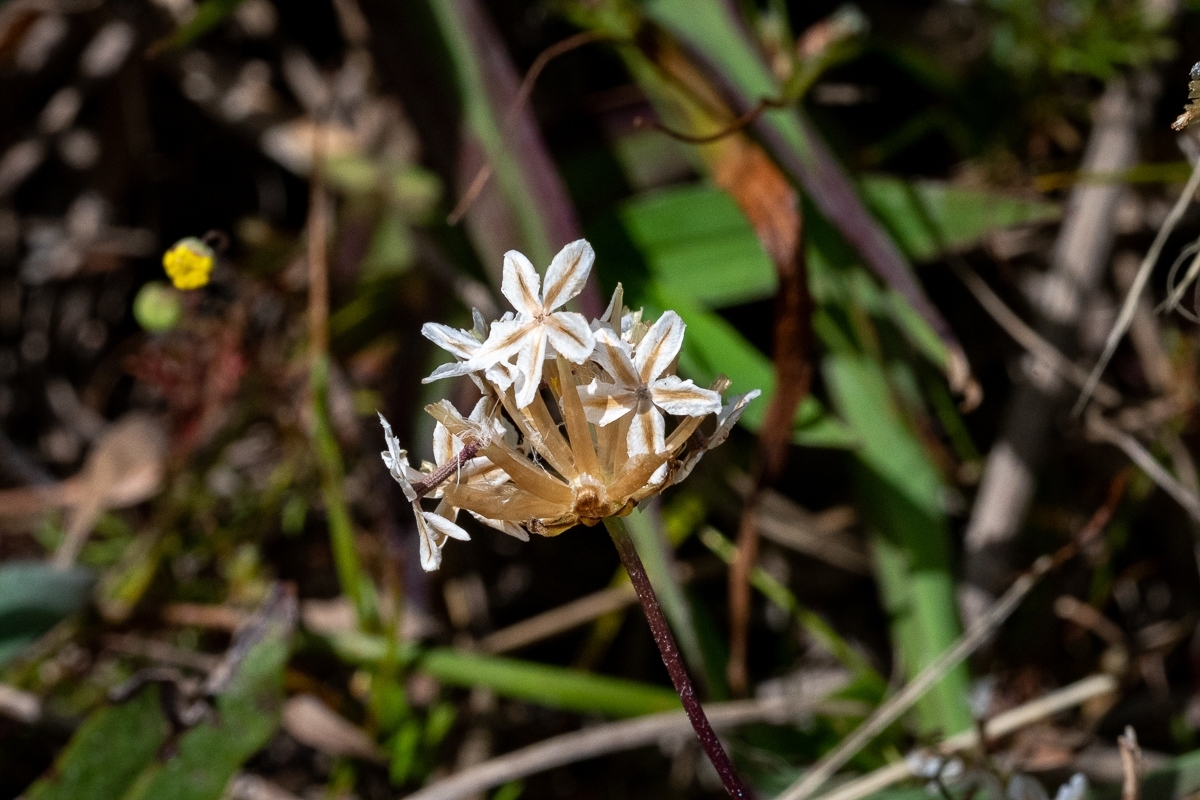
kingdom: Plantae
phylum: Tracheophyta
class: Magnoliopsida
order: Asterales
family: Asteraceae
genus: Ursinia
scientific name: Ursinia anthemoides
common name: Ursinia
